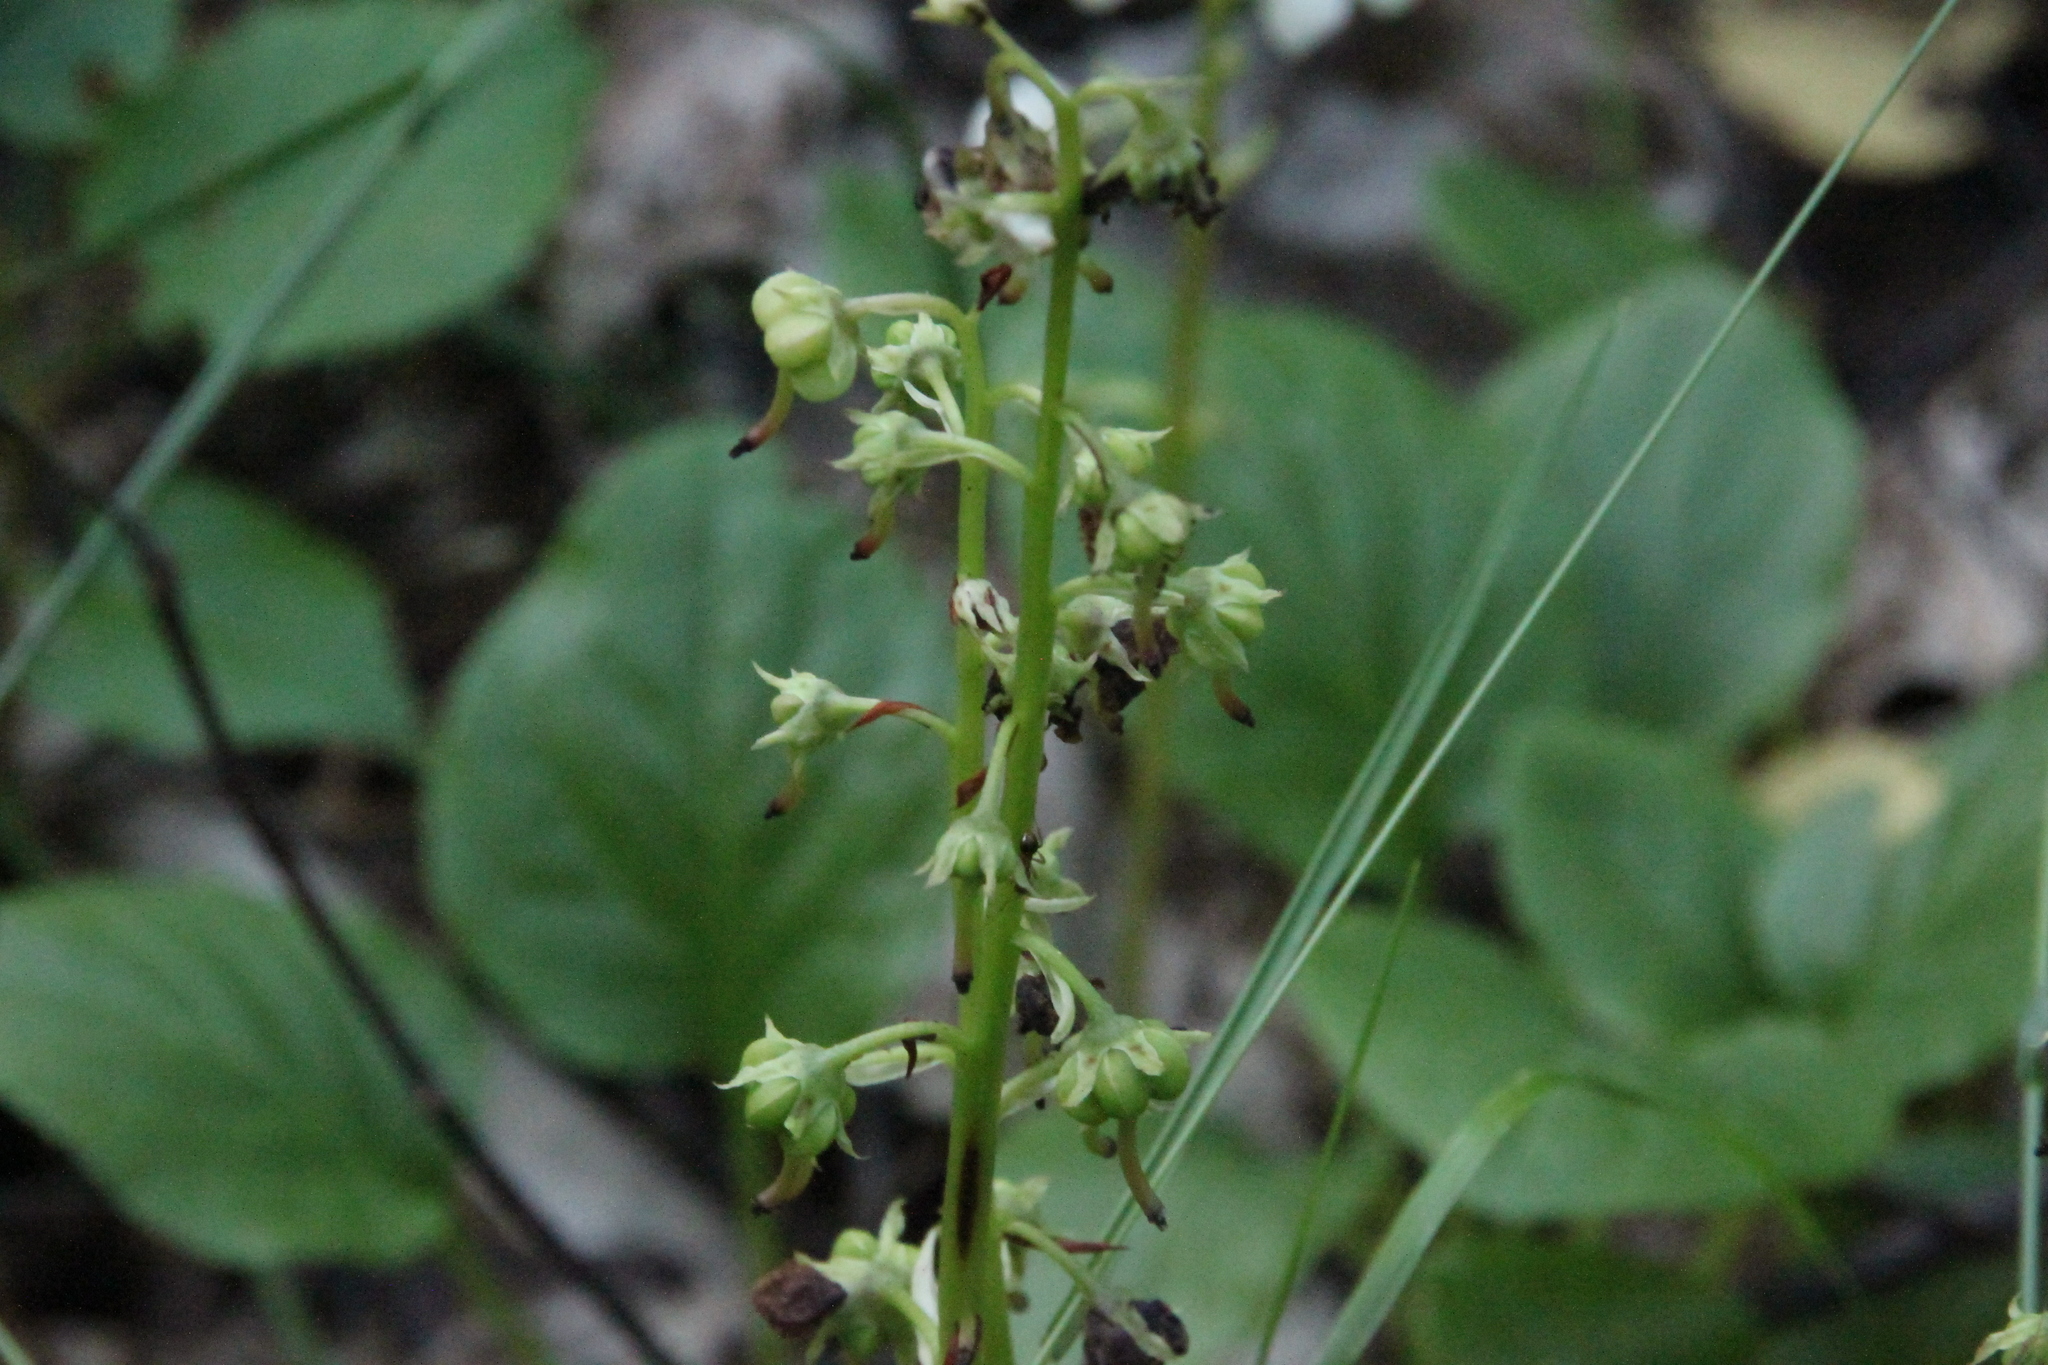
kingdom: Plantae
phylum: Tracheophyta
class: Magnoliopsida
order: Ericales
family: Ericaceae
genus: Pyrola
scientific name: Pyrola rotundifolia
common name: Round-leaved wintergreen
